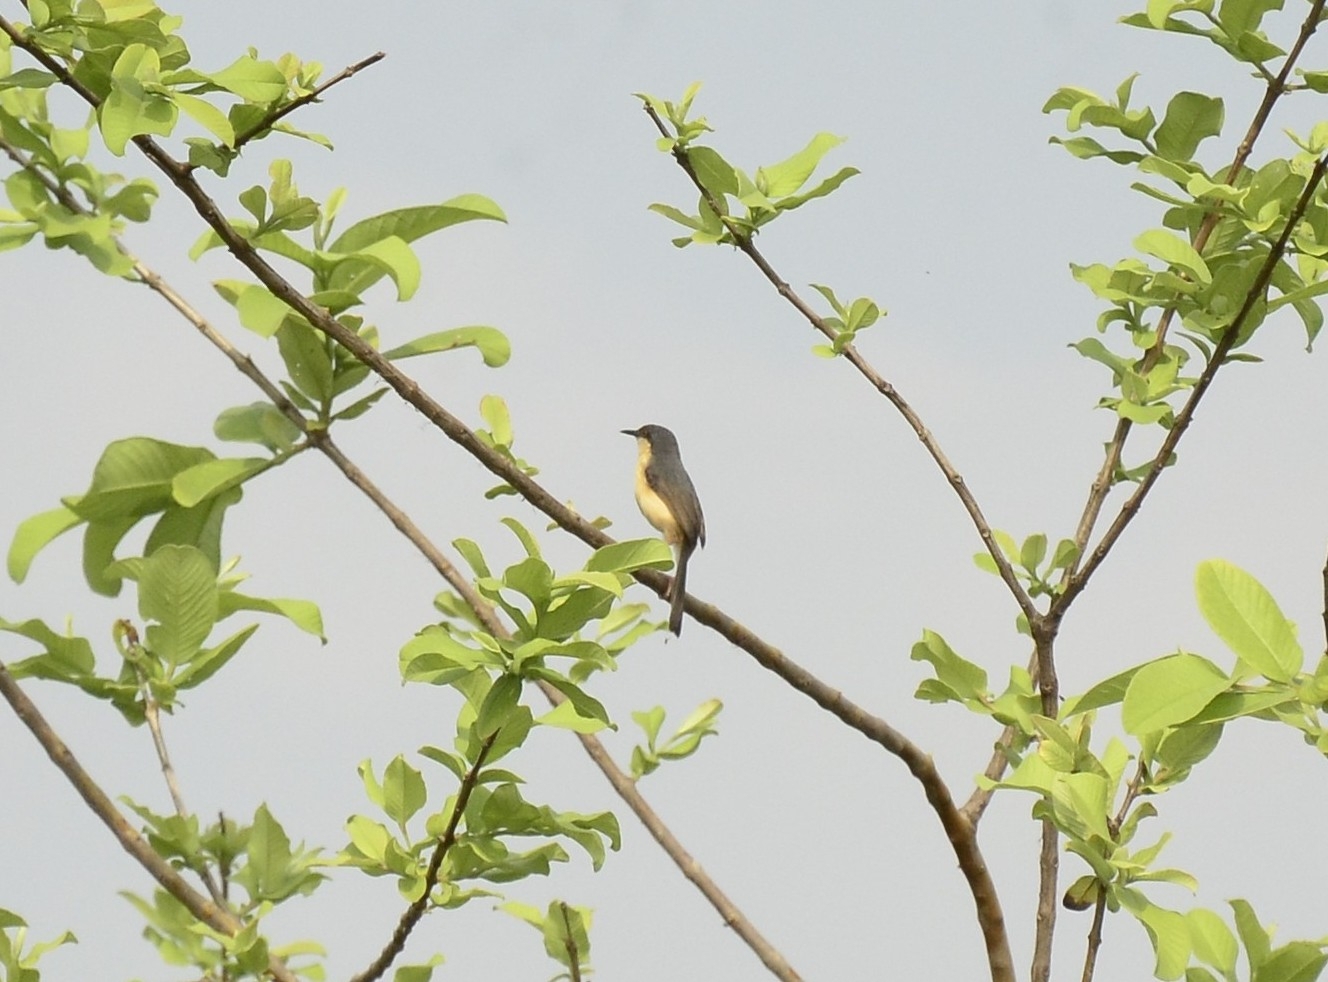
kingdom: Animalia
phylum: Chordata
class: Aves
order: Passeriformes
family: Cisticolidae
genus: Prinia
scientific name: Prinia socialis
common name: Ashy prinia
